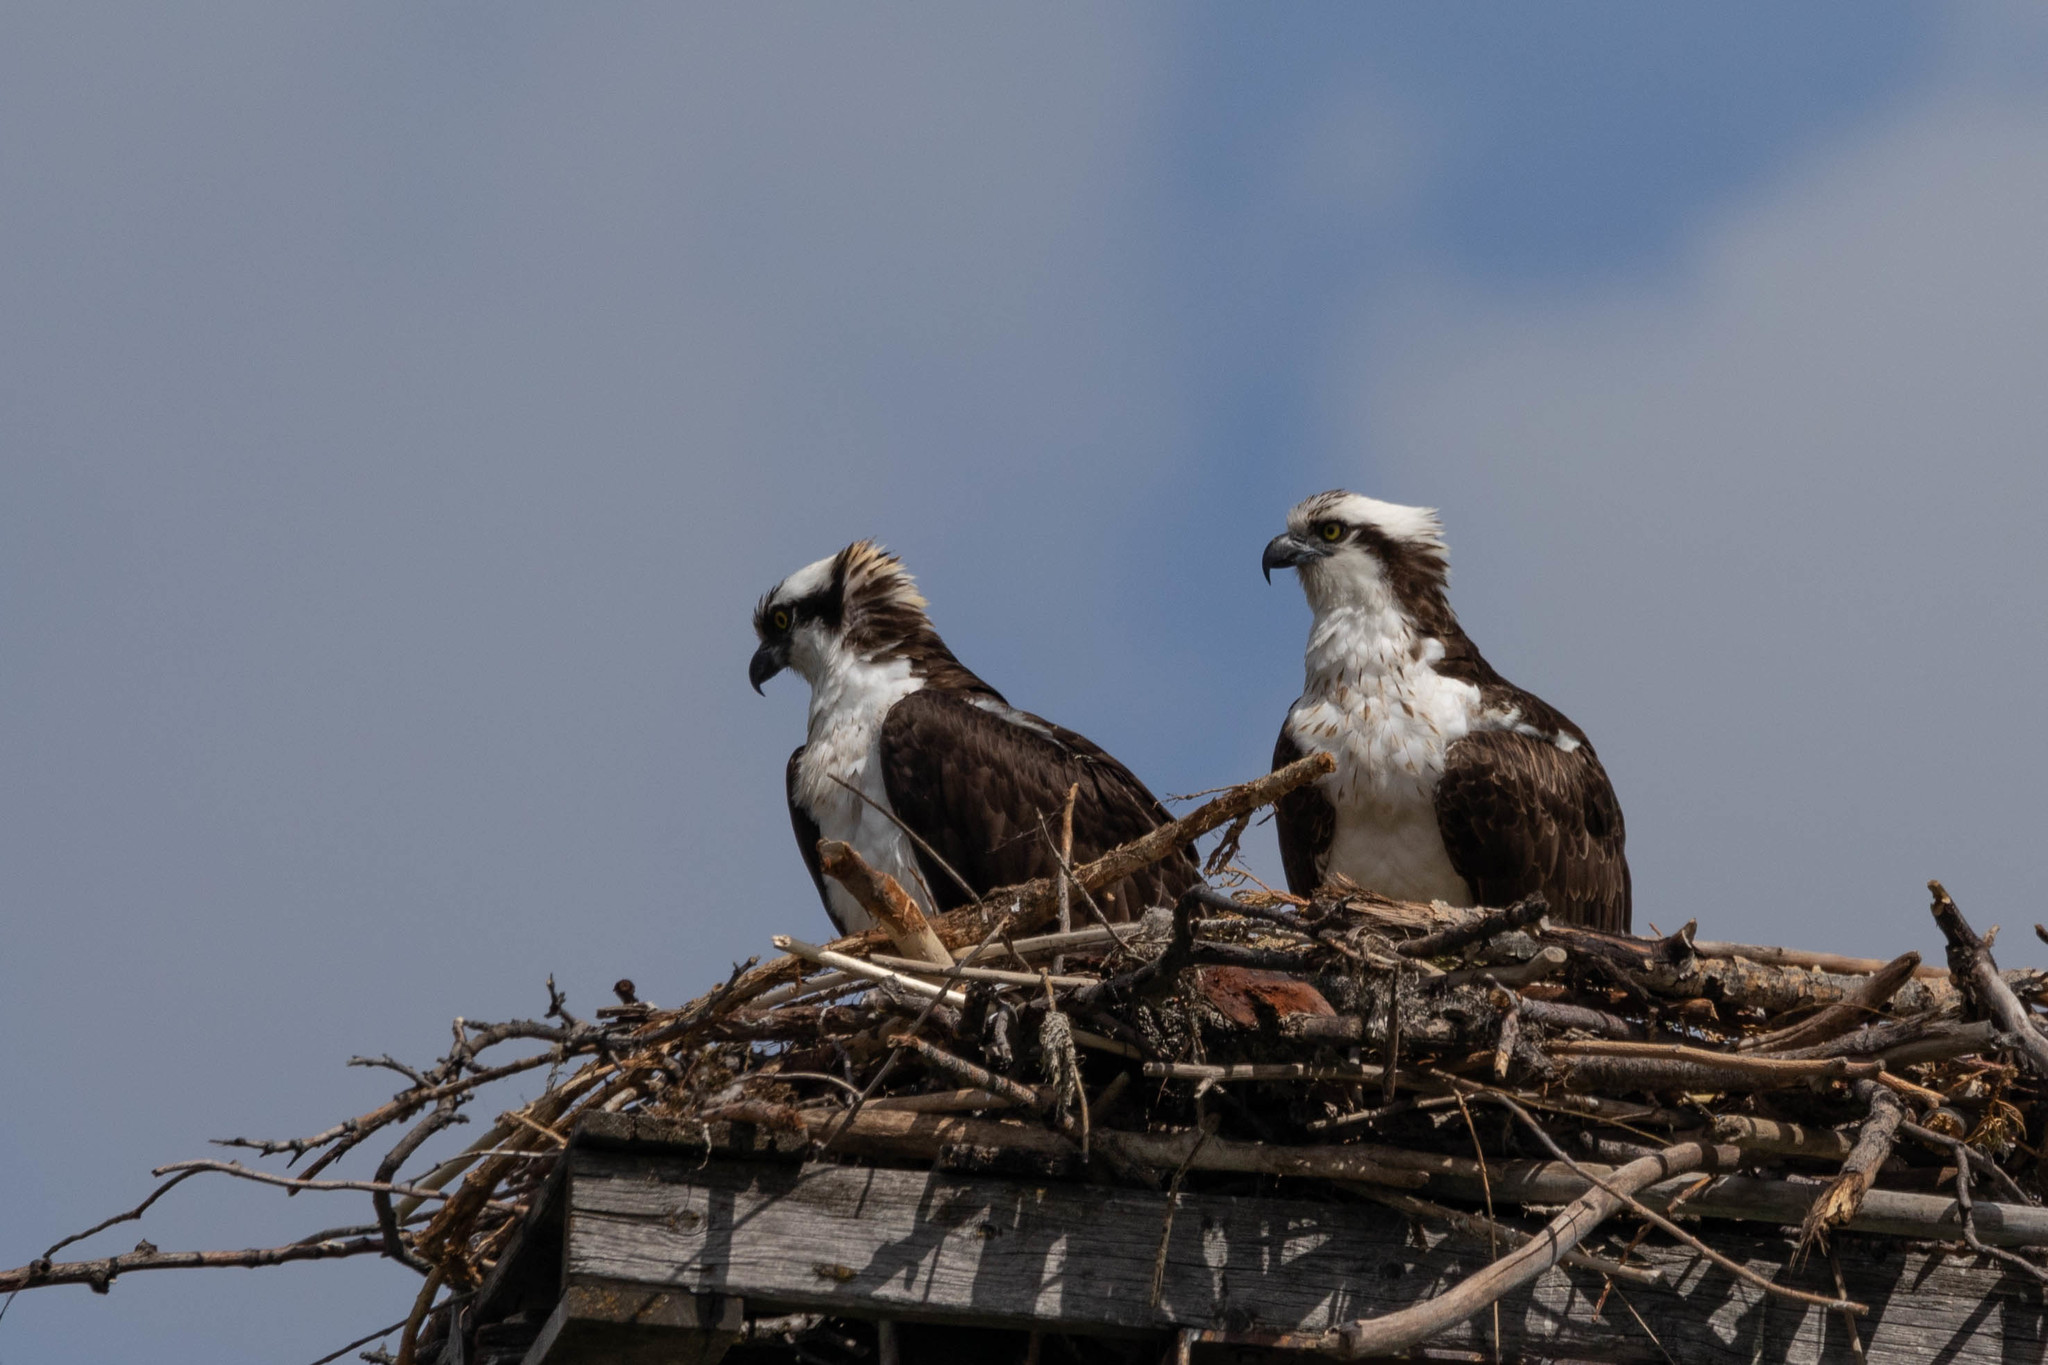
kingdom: Animalia
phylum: Chordata
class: Aves
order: Accipitriformes
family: Pandionidae
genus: Pandion
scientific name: Pandion haliaetus
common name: Osprey
